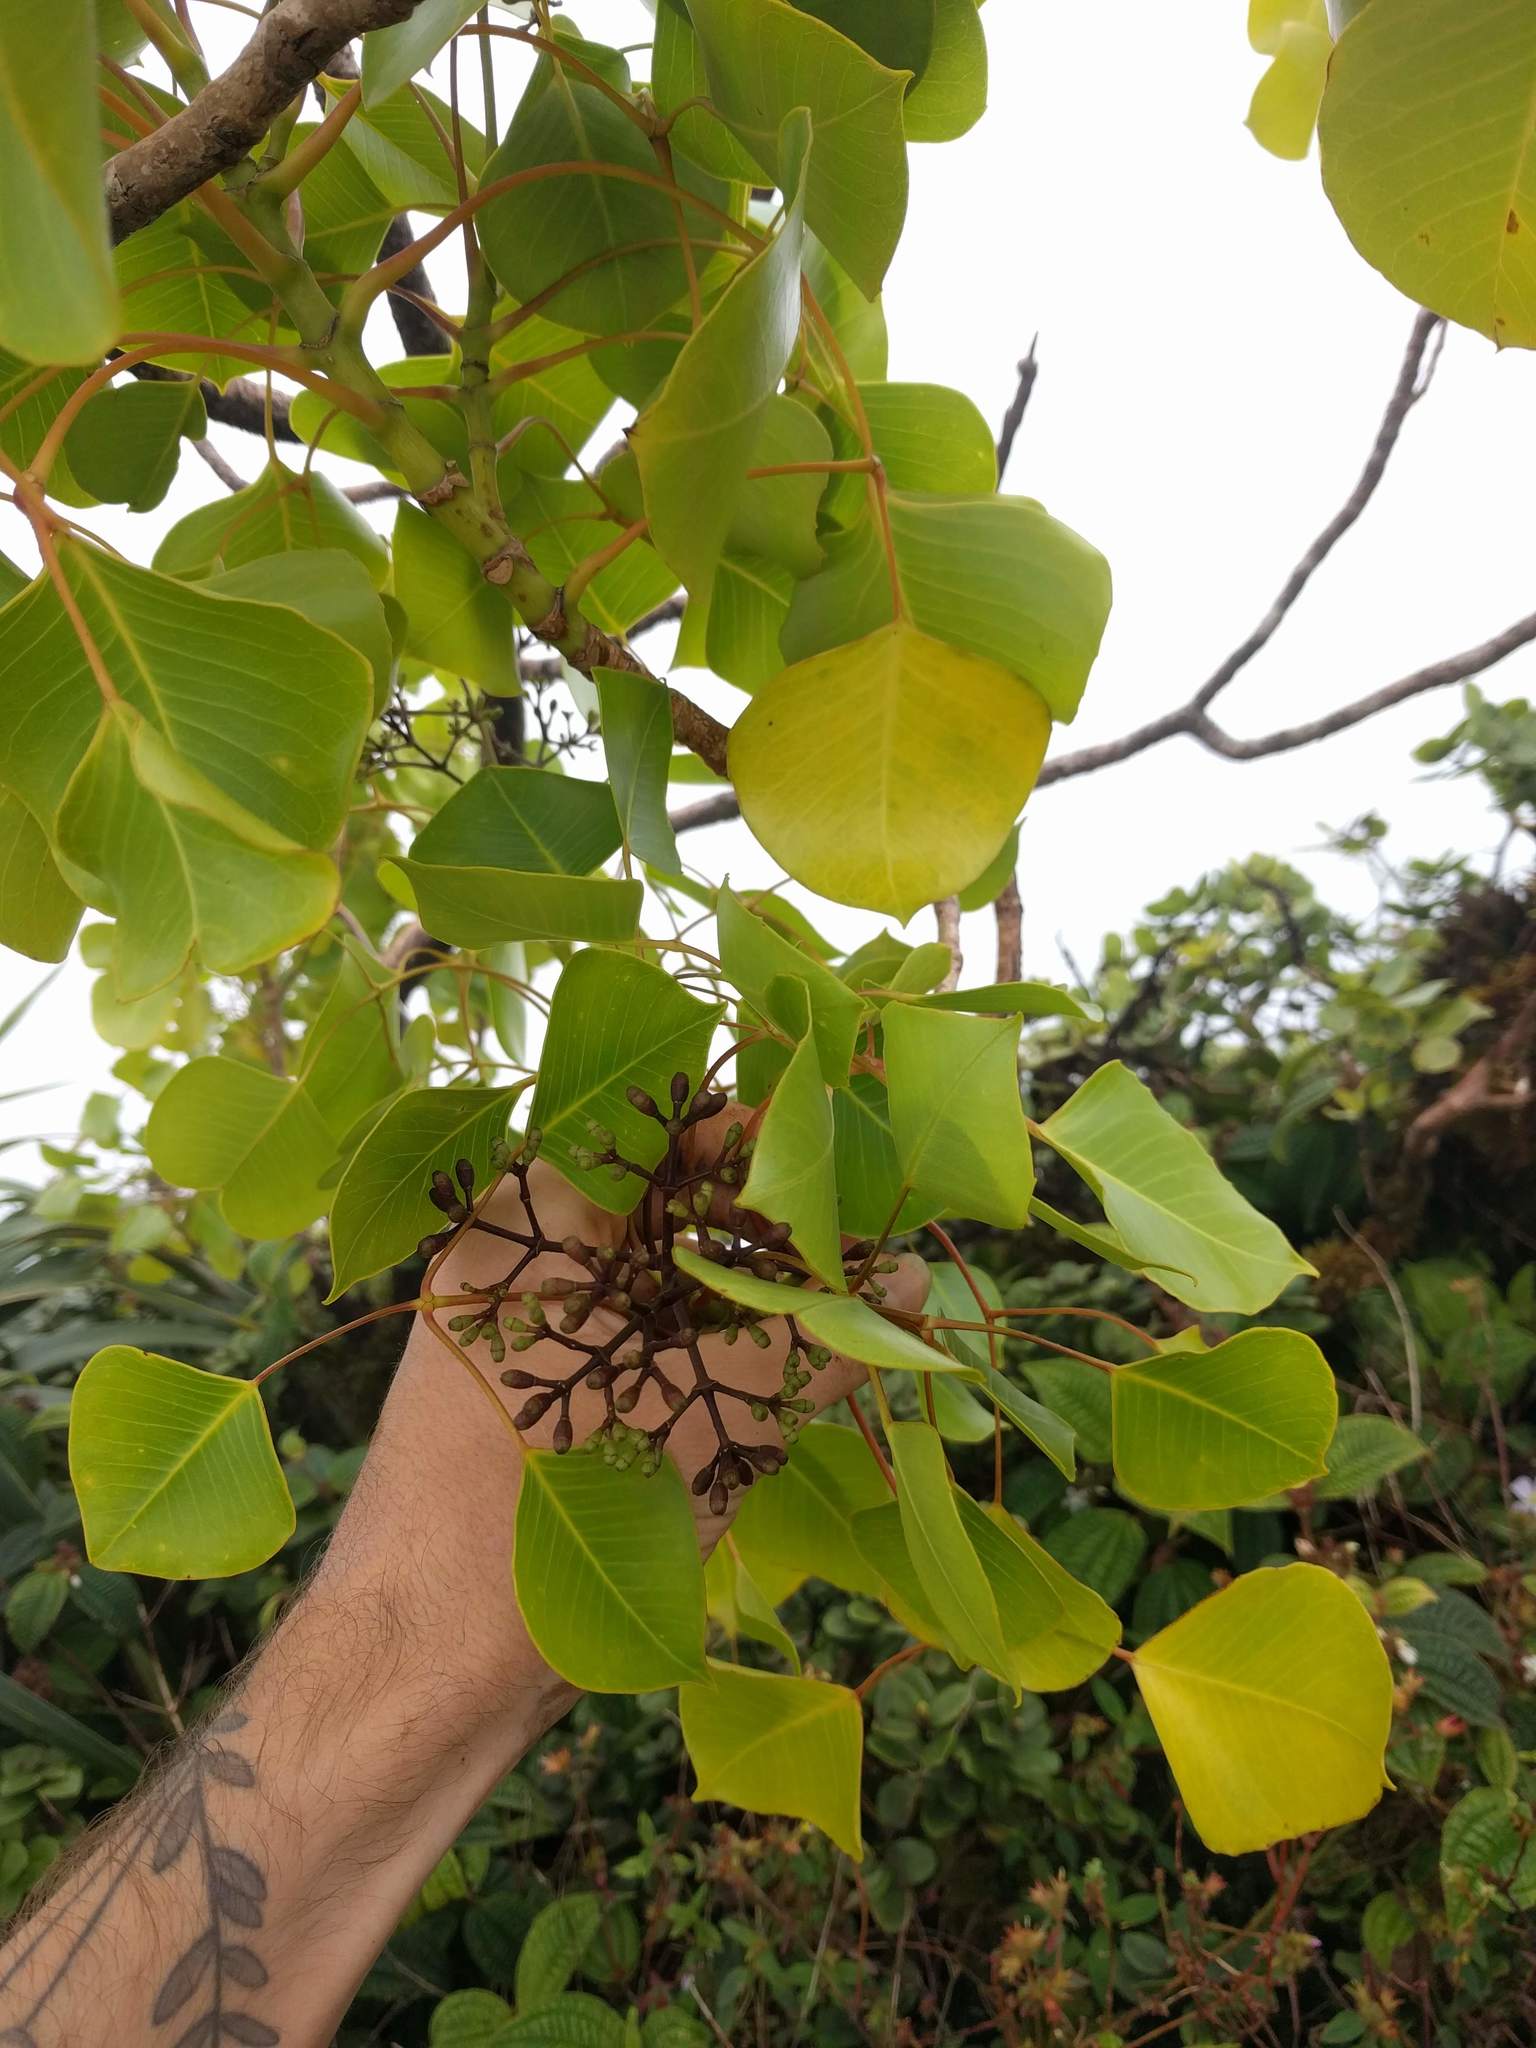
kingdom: Plantae
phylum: Tracheophyta
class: Magnoliopsida
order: Apiales
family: Araliaceae
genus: Cheirodendron
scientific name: Cheirodendron platyphyllum
